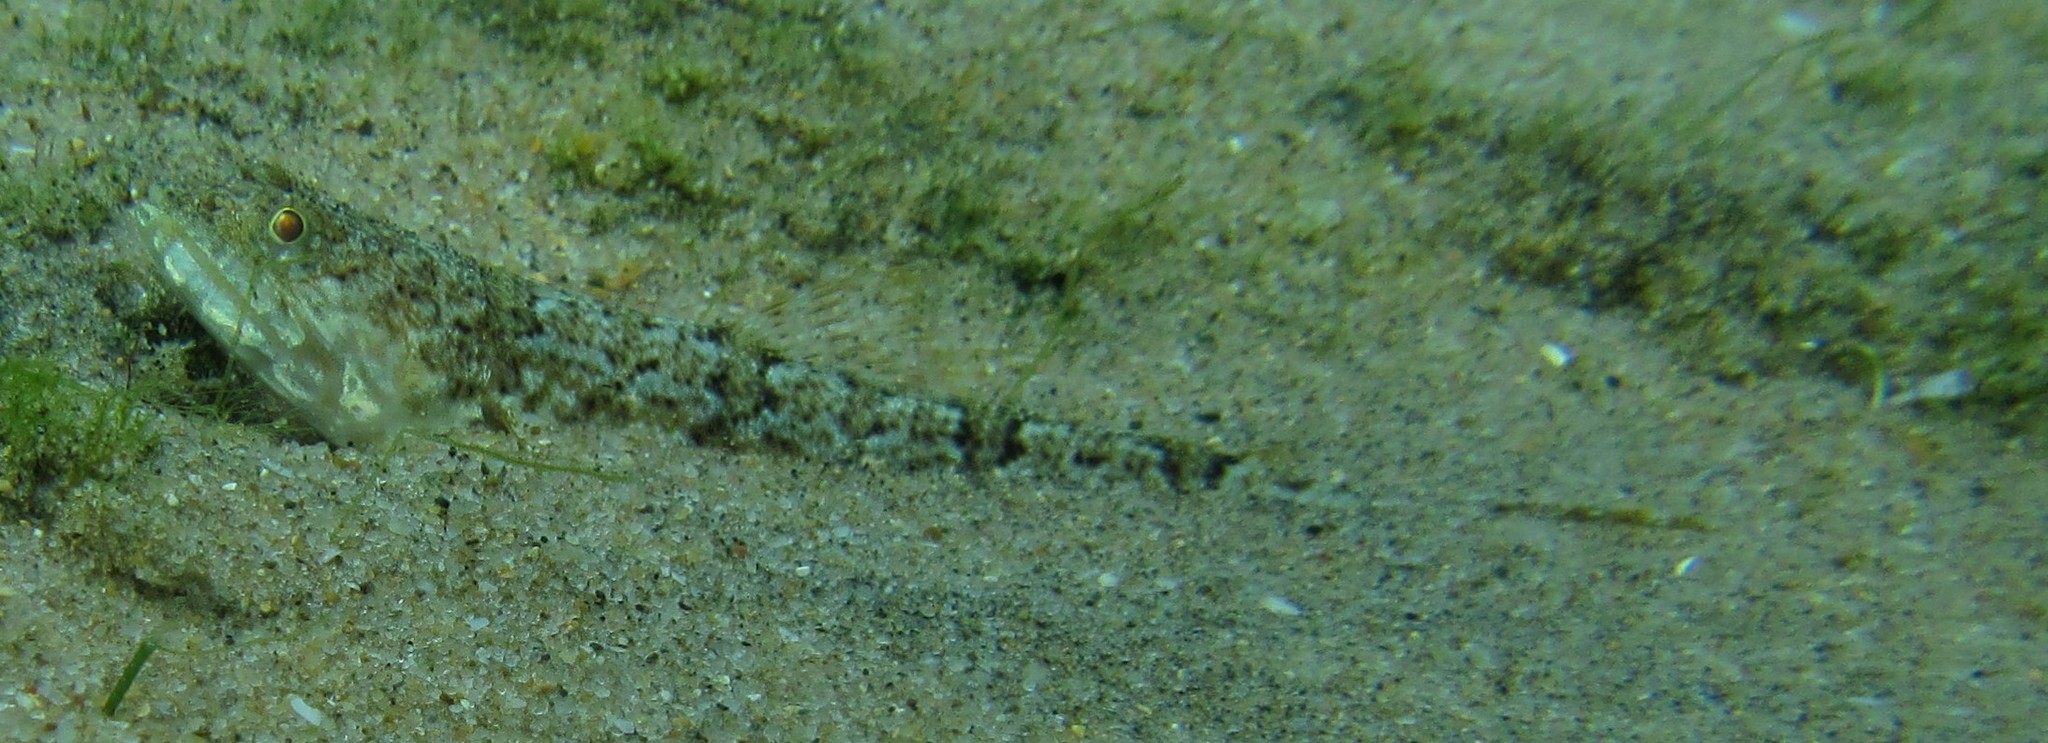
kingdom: Animalia
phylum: Chordata
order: Aulopiformes
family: Synodontidae
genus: Synodus
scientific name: Synodus dermatogenys
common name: Banded lizardfish
